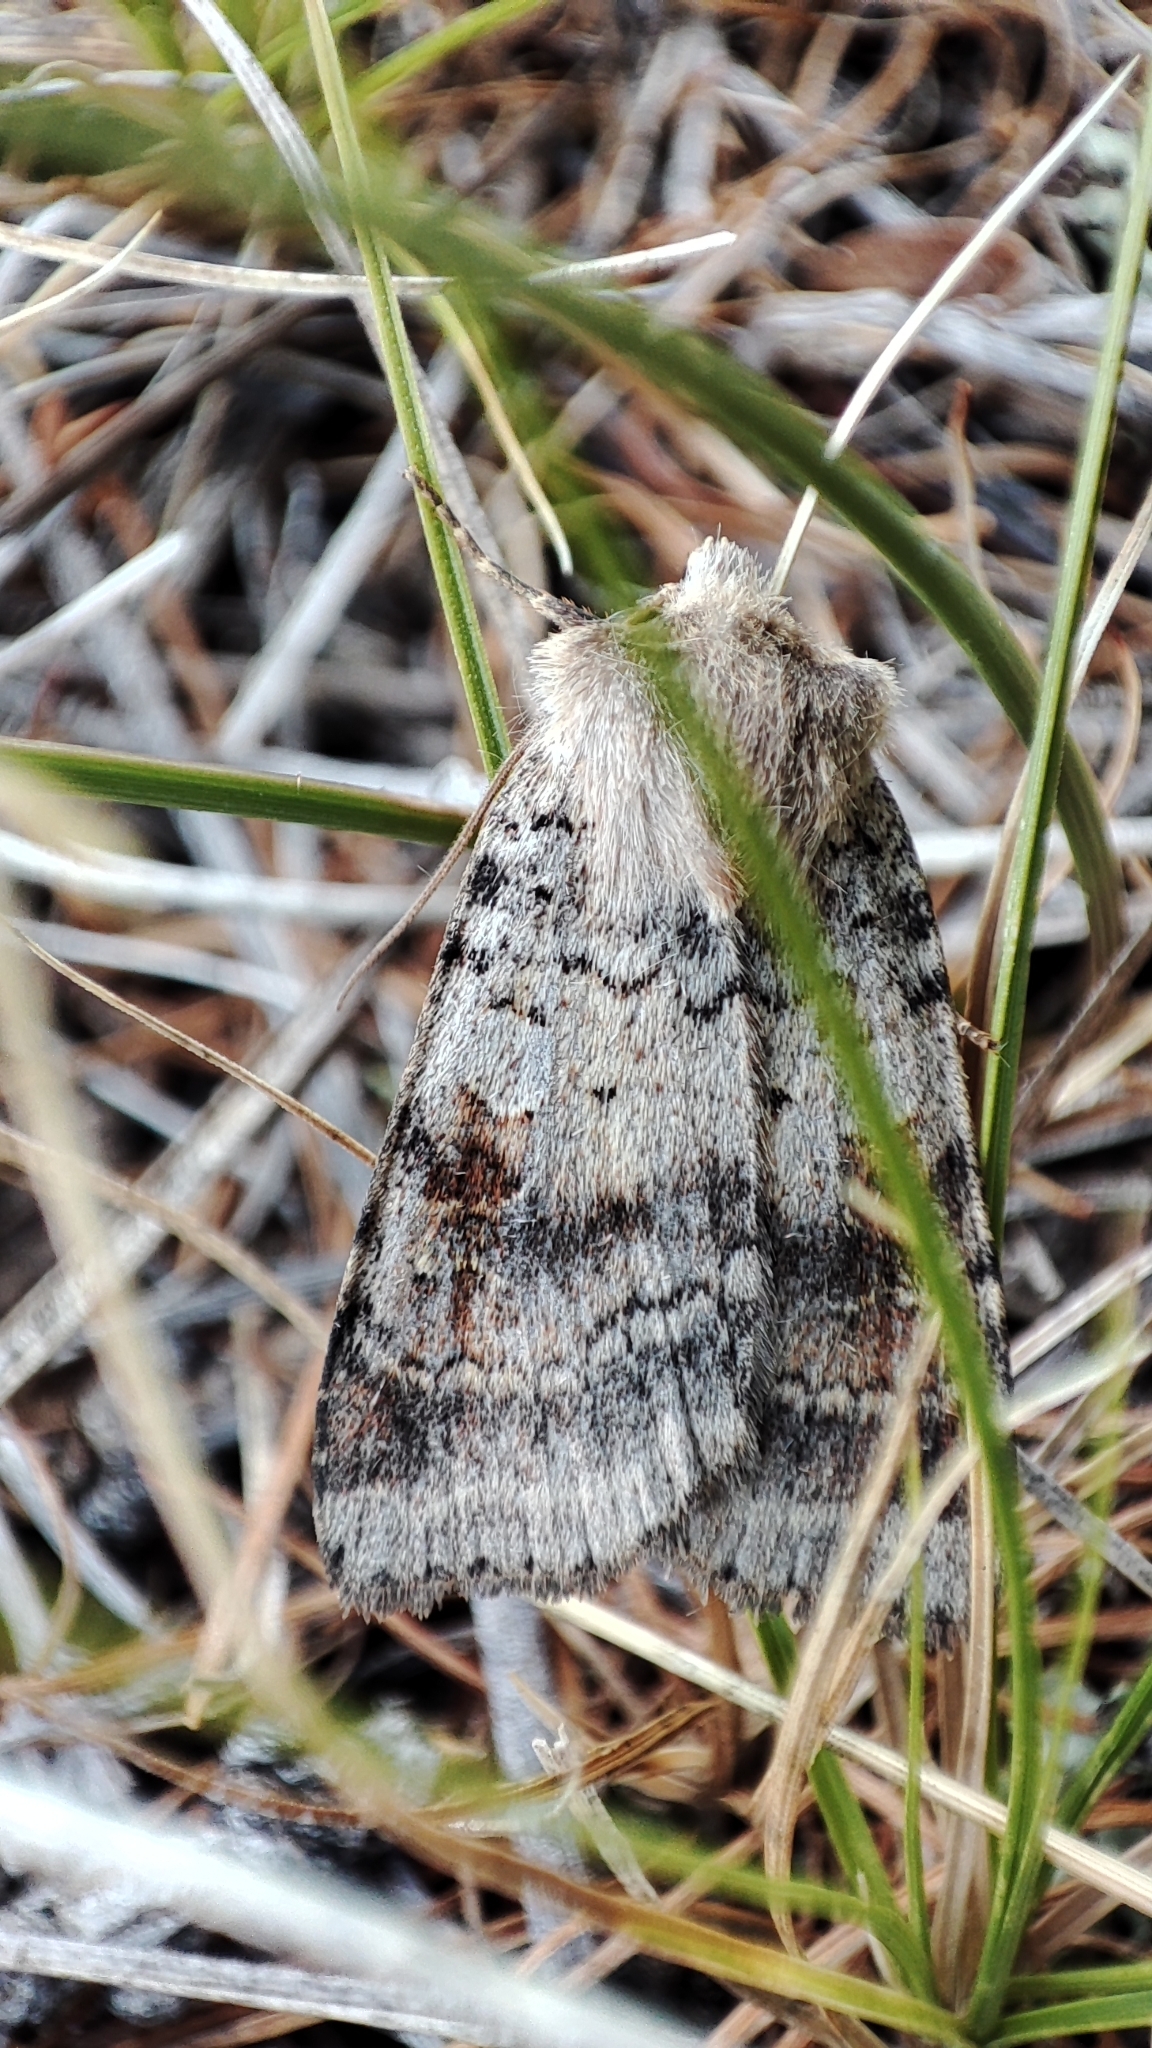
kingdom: Animalia
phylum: Arthropoda
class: Insecta
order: Lepidoptera
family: Noctuidae
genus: Diarsia
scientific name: Diarsia mendica
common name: Ingrailed clay
